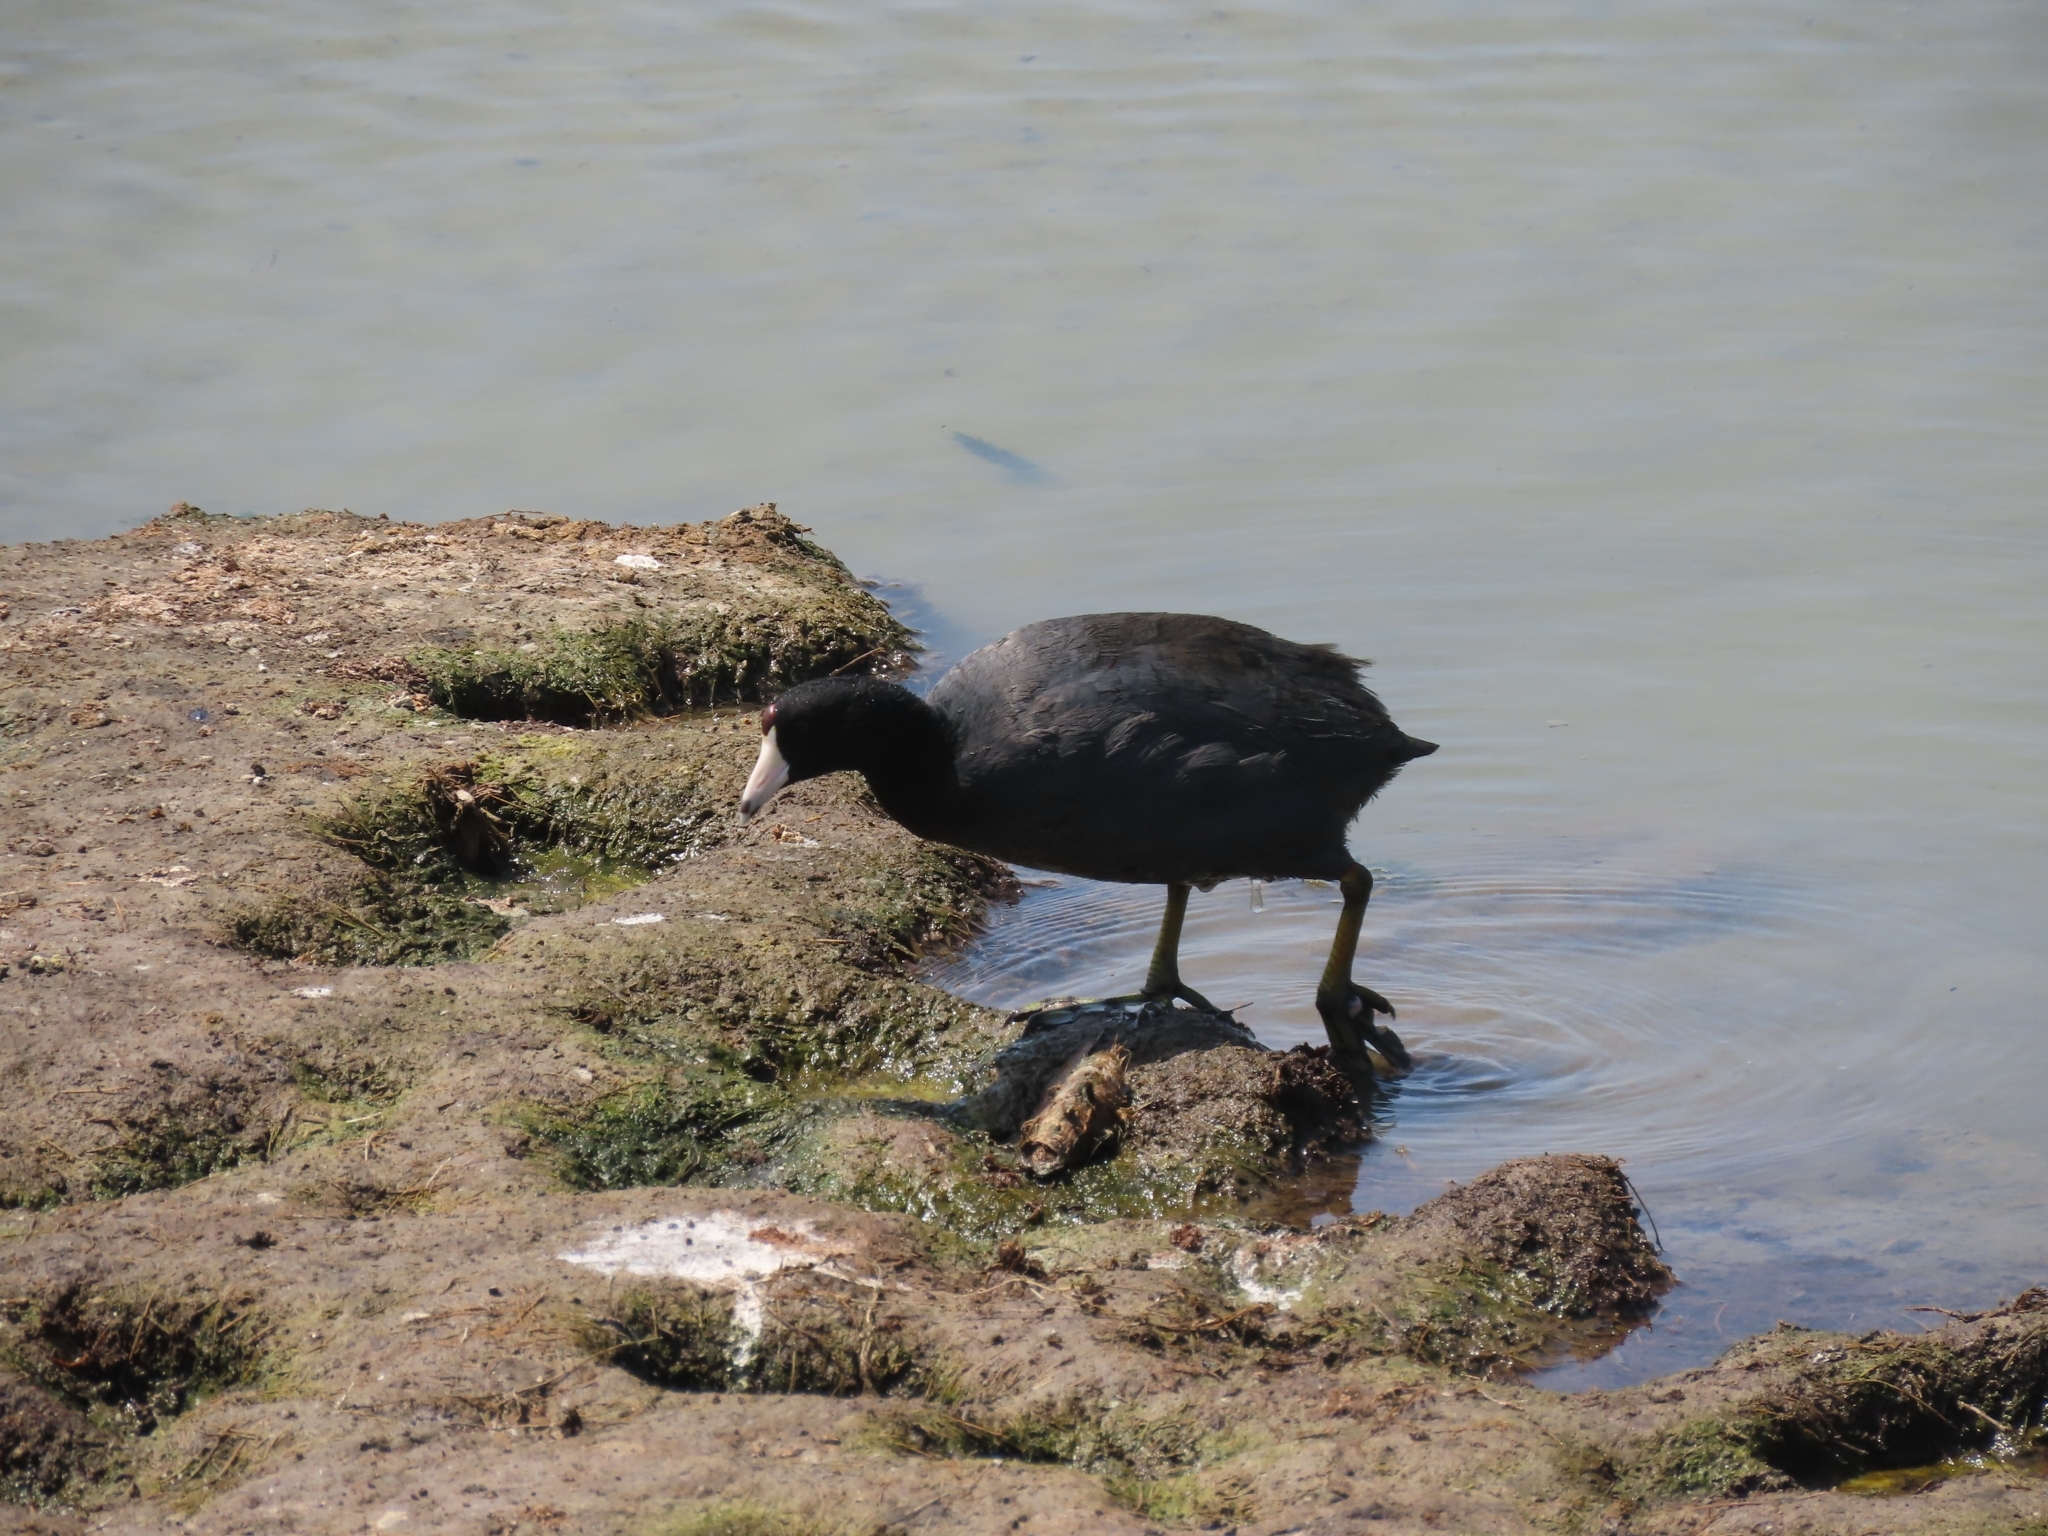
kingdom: Animalia
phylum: Chordata
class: Aves
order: Gruiformes
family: Rallidae
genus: Fulica
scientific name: Fulica americana
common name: American coot
